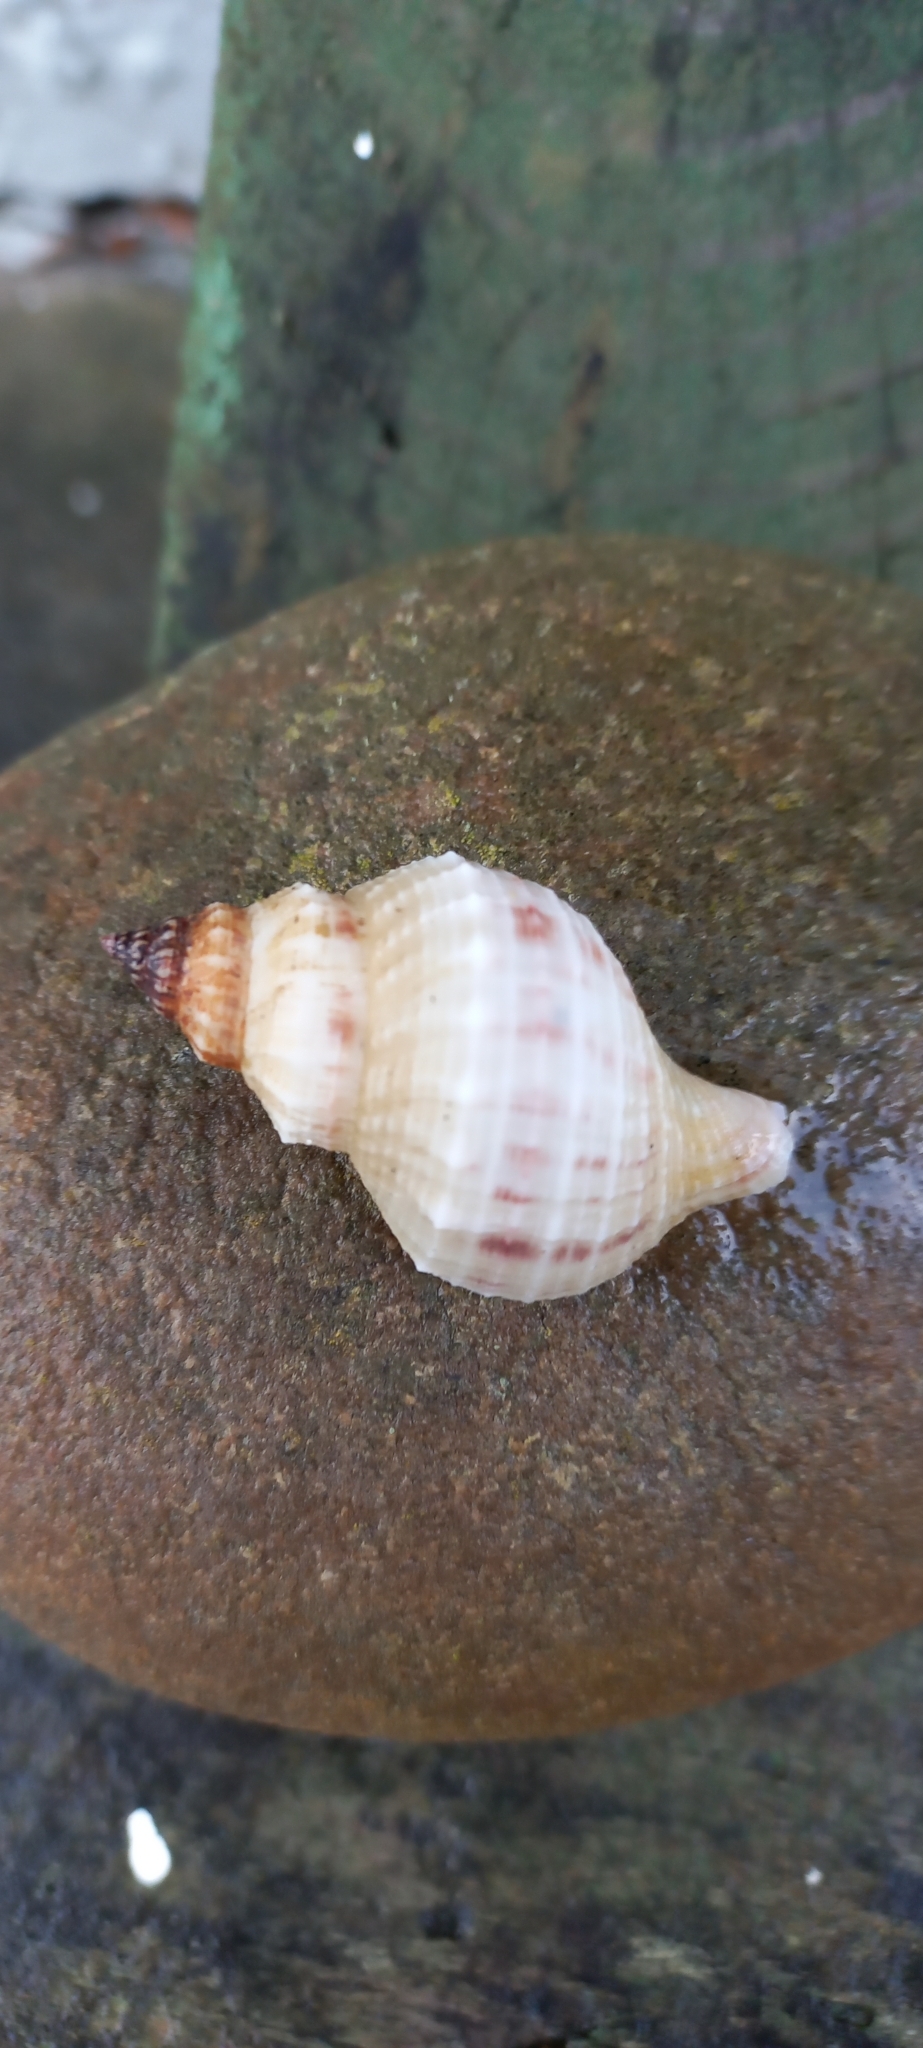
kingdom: Animalia
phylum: Mollusca
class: Gastropoda
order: Neogastropoda
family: Prosiphonidae
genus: Austrofusus
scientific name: Austrofusus glans
